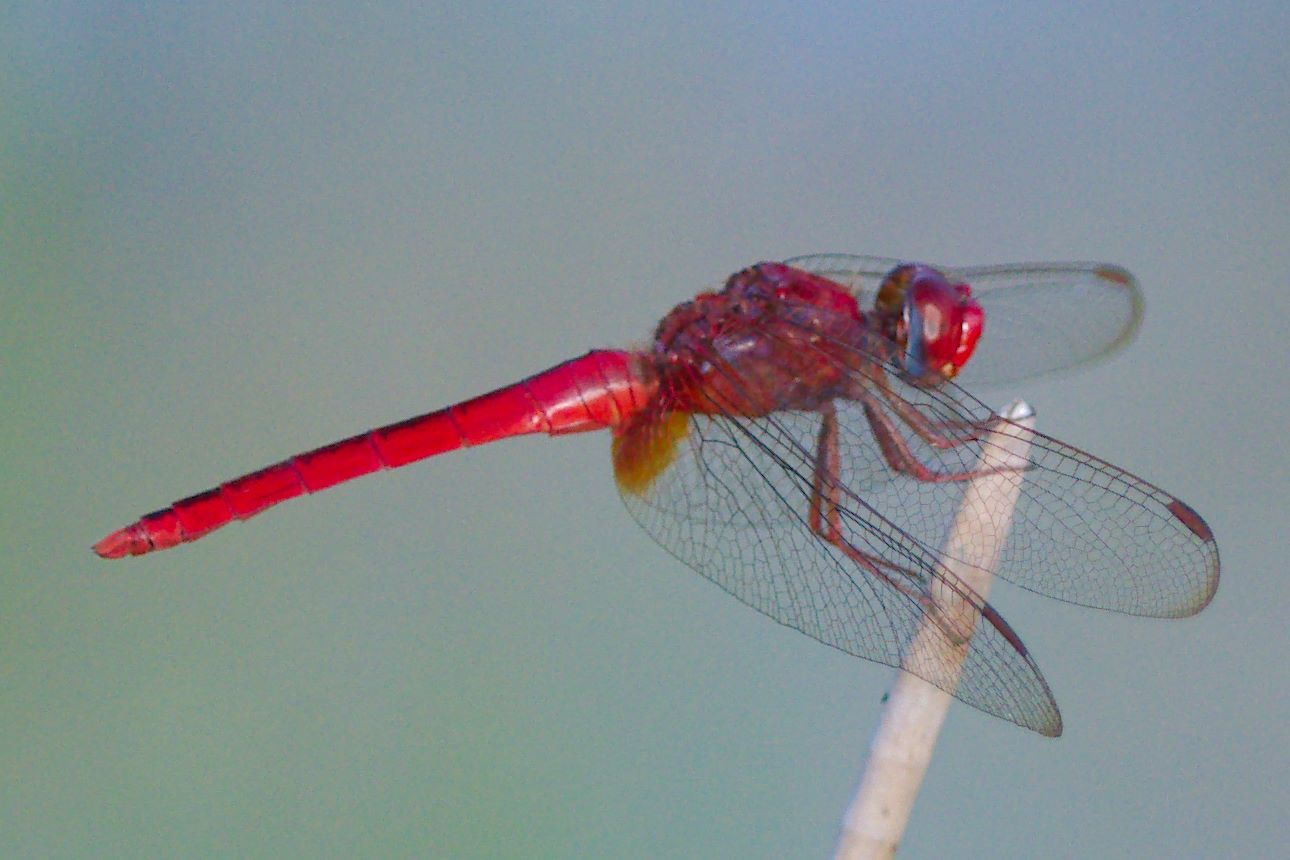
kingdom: Animalia
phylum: Arthropoda
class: Insecta
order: Odonata
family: Libellulidae
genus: Crocothemis
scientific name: Crocothemis servilia
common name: Scarlet skimmer
